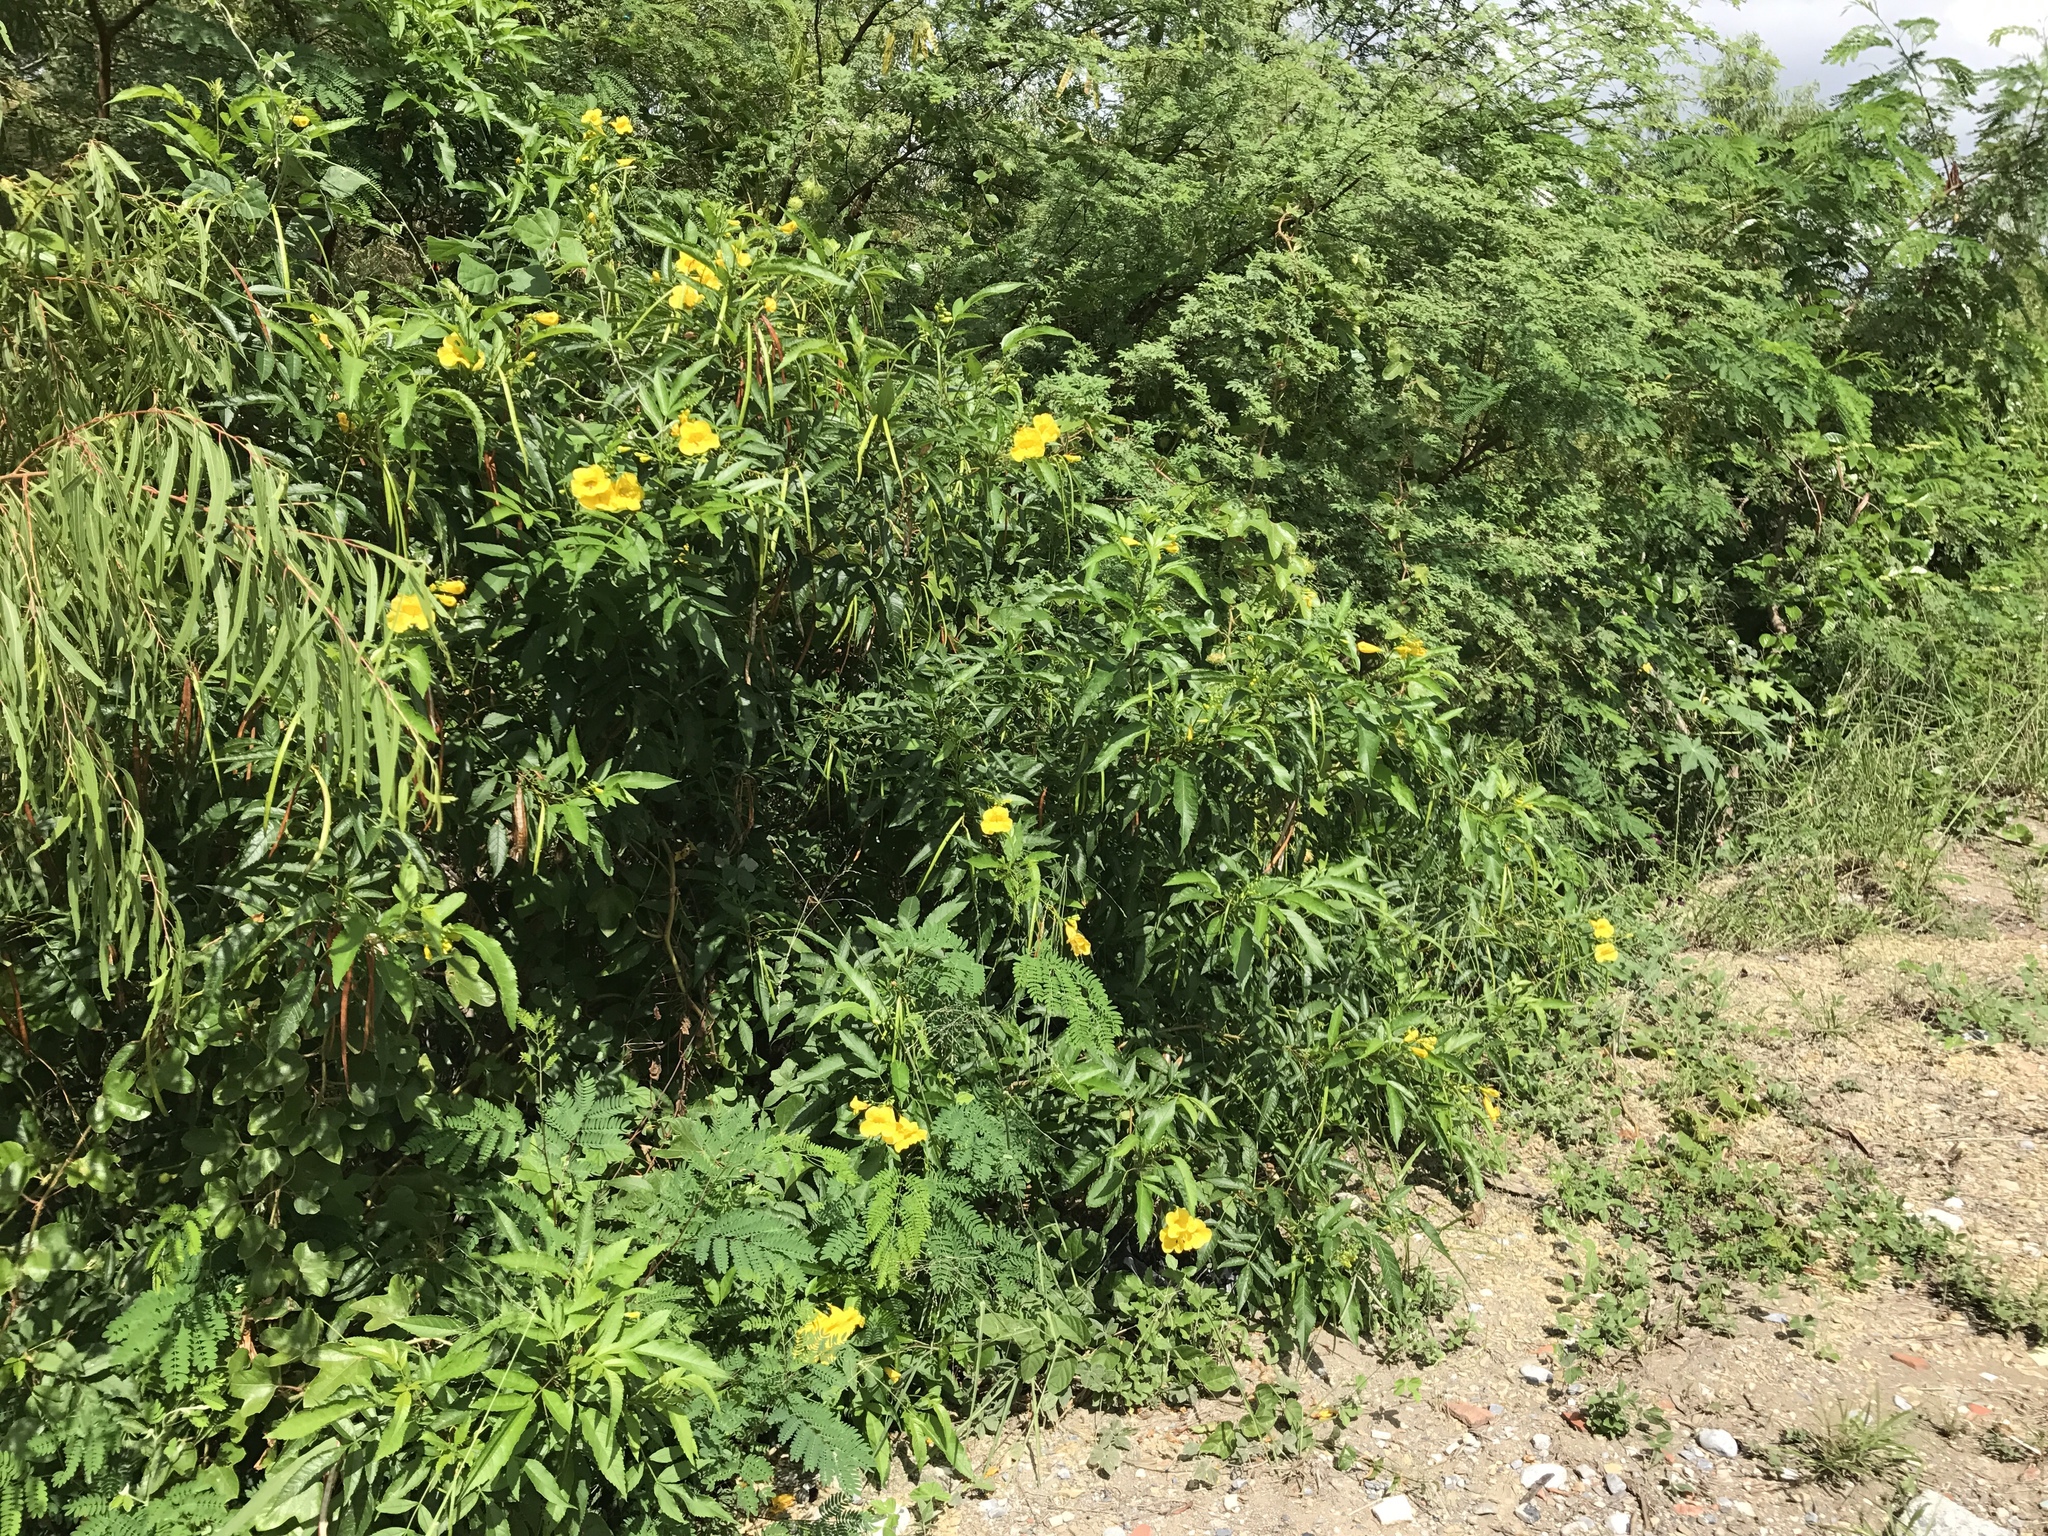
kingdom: Plantae
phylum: Tracheophyta
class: Magnoliopsida
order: Lamiales
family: Bignoniaceae
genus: Tecoma
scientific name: Tecoma stans
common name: Yellow trumpetbush
